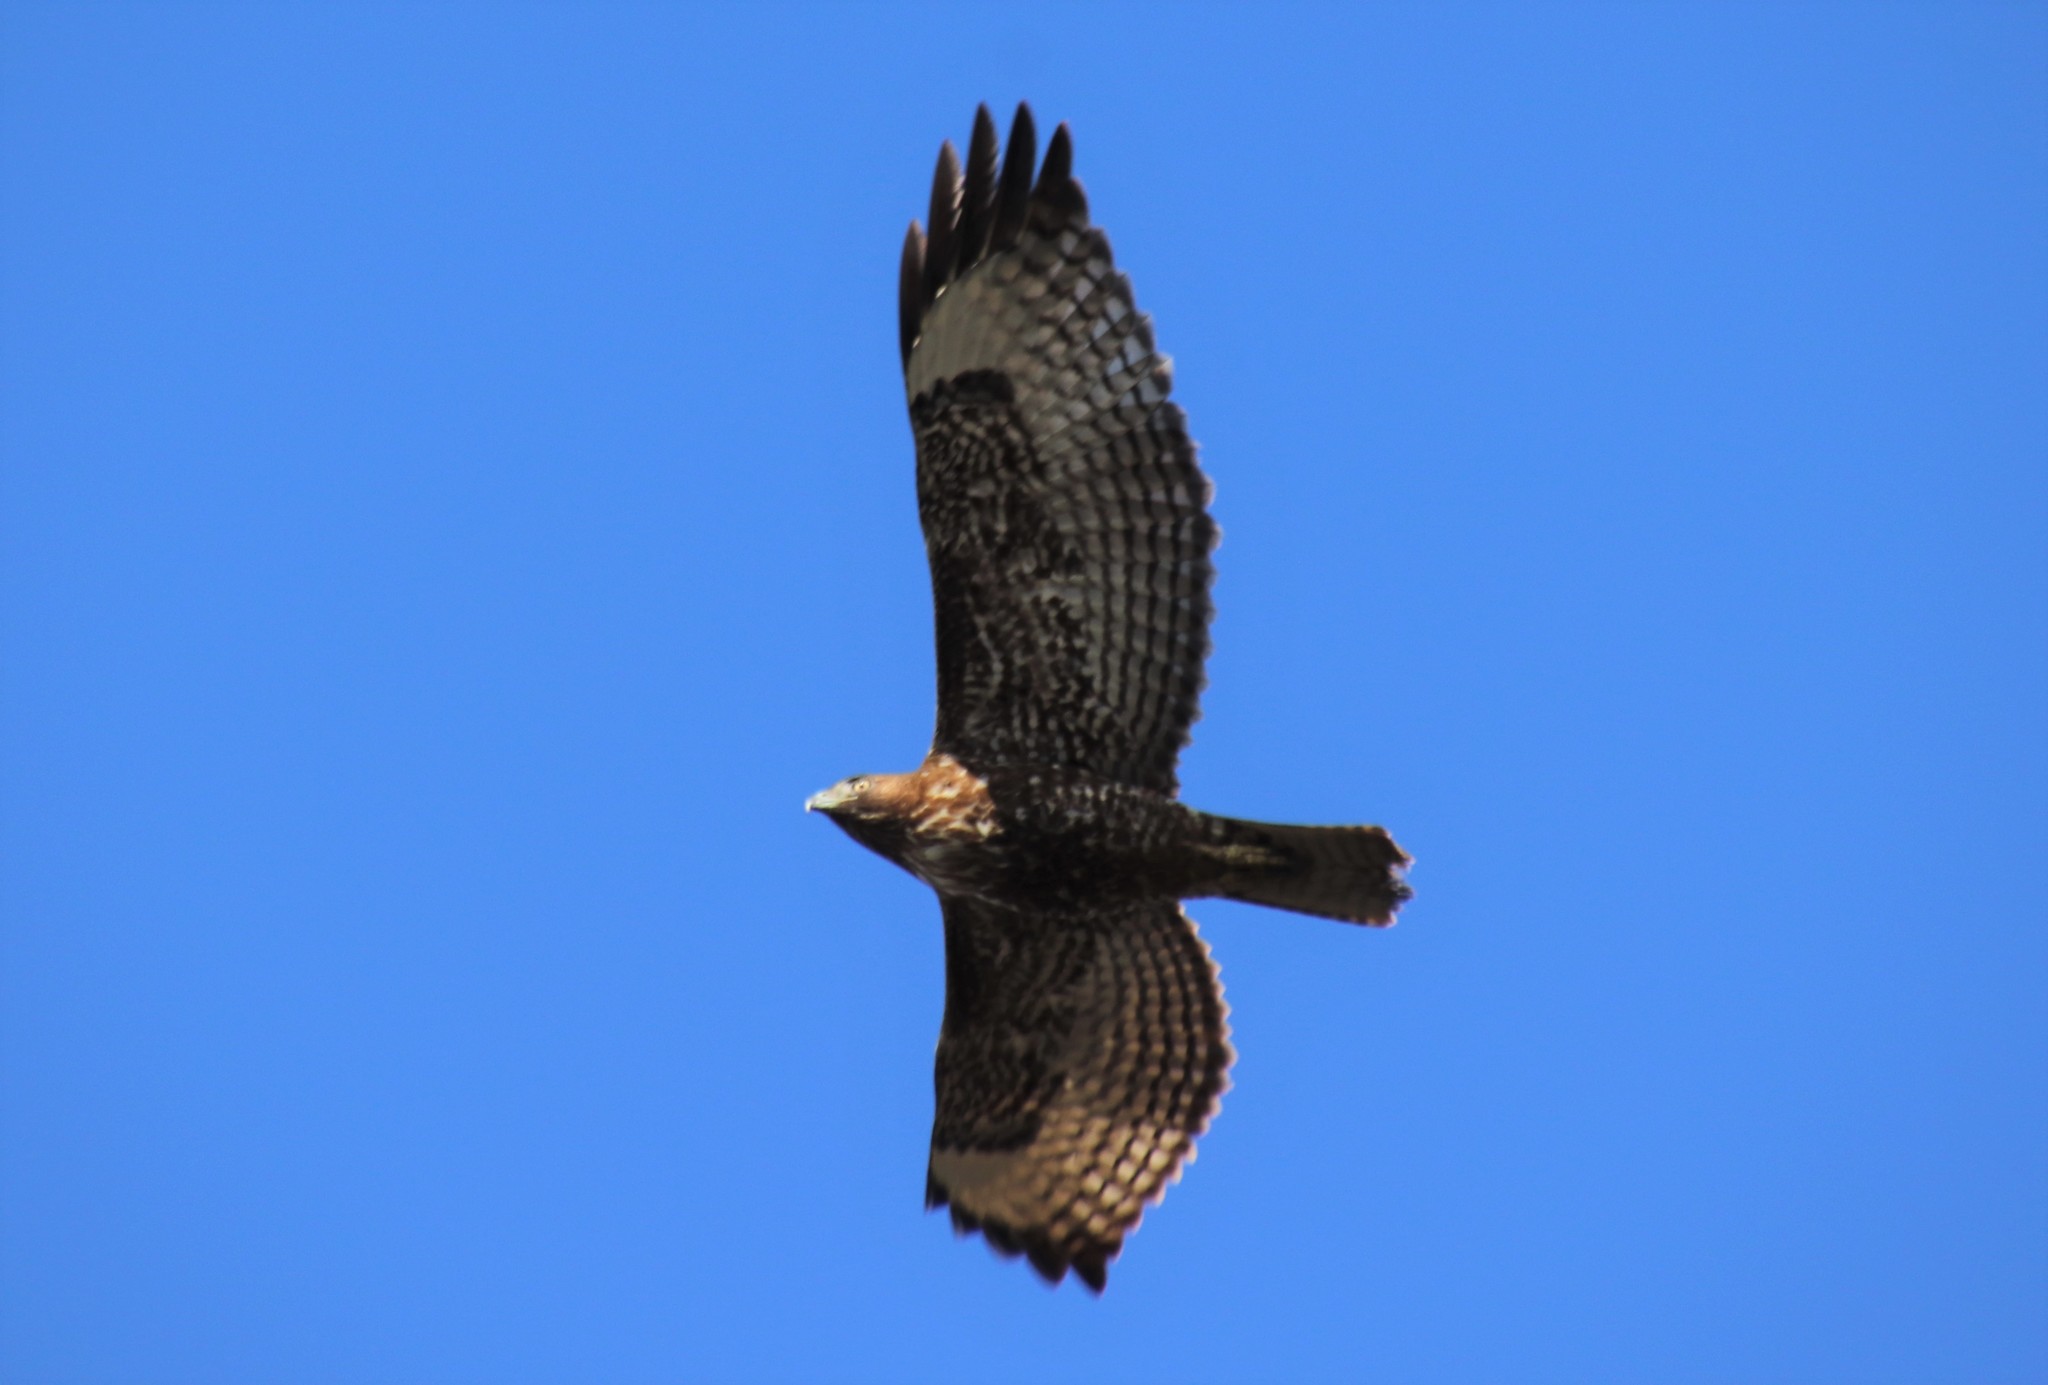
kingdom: Animalia
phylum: Chordata
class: Aves
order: Accipitriformes
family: Accipitridae
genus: Buteo
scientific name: Buteo jamaicensis
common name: Red-tailed hawk
